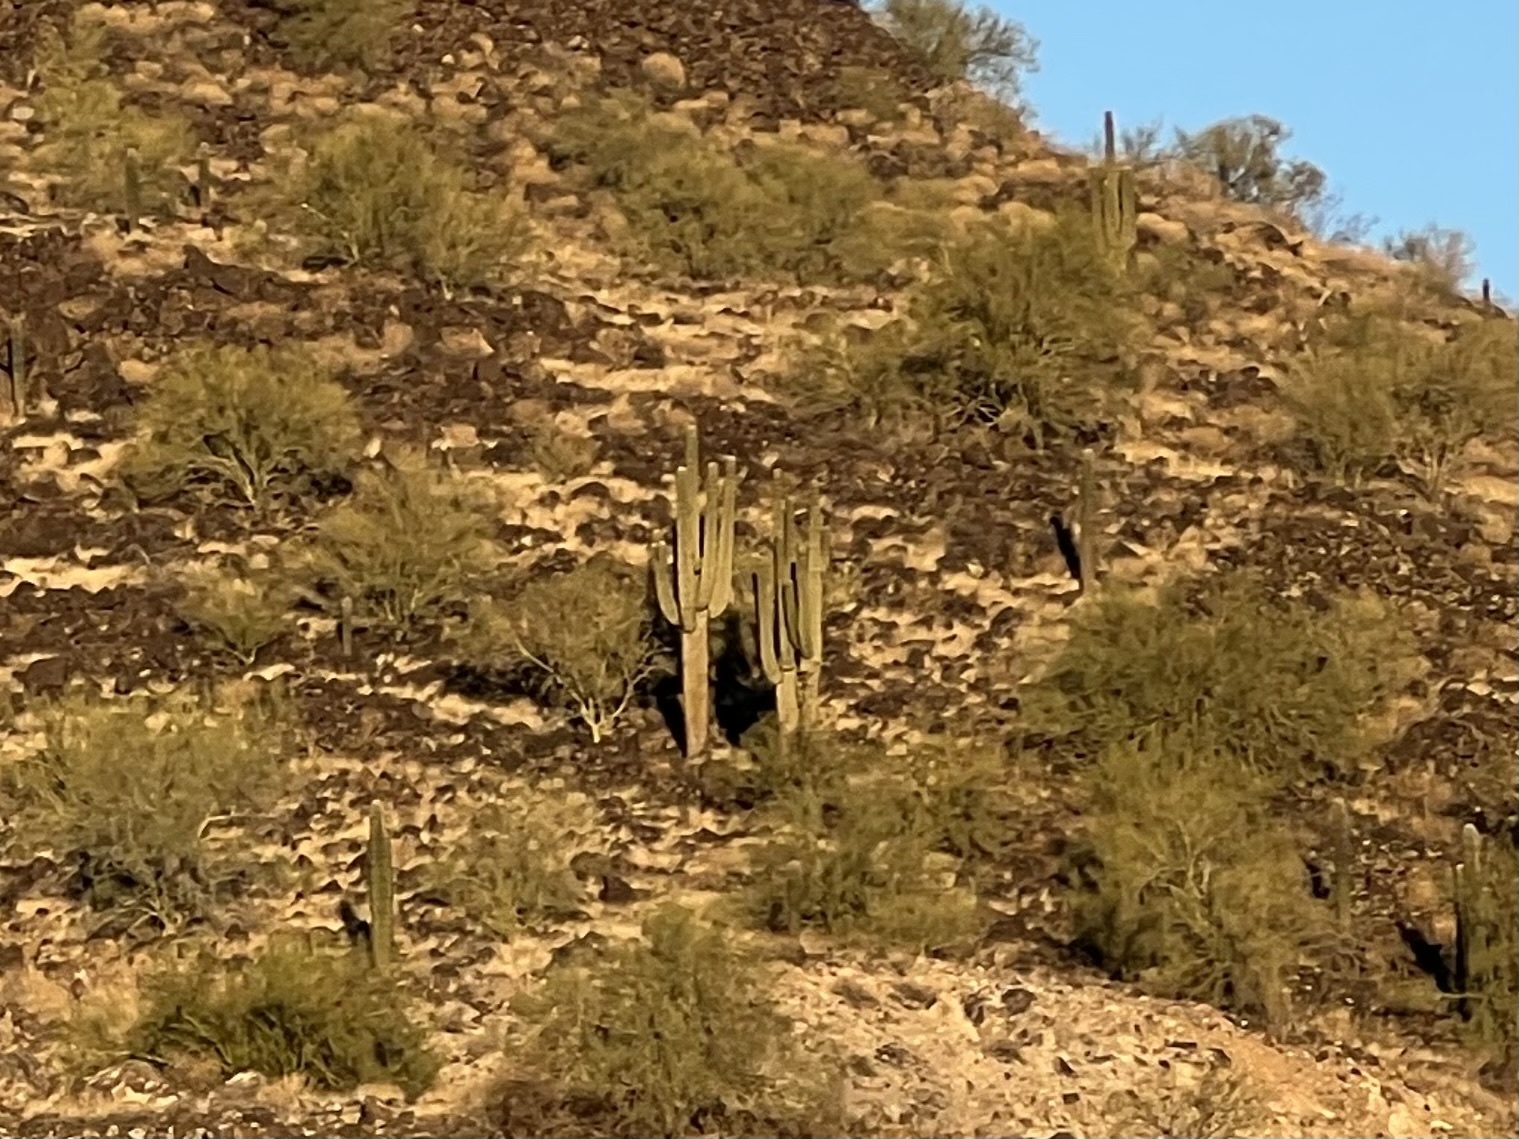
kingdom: Plantae
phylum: Tracheophyta
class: Magnoliopsida
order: Caryophyllales
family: Cactaceae
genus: Carnegiea
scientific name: Carnegiea gigantea
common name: Saguaro
